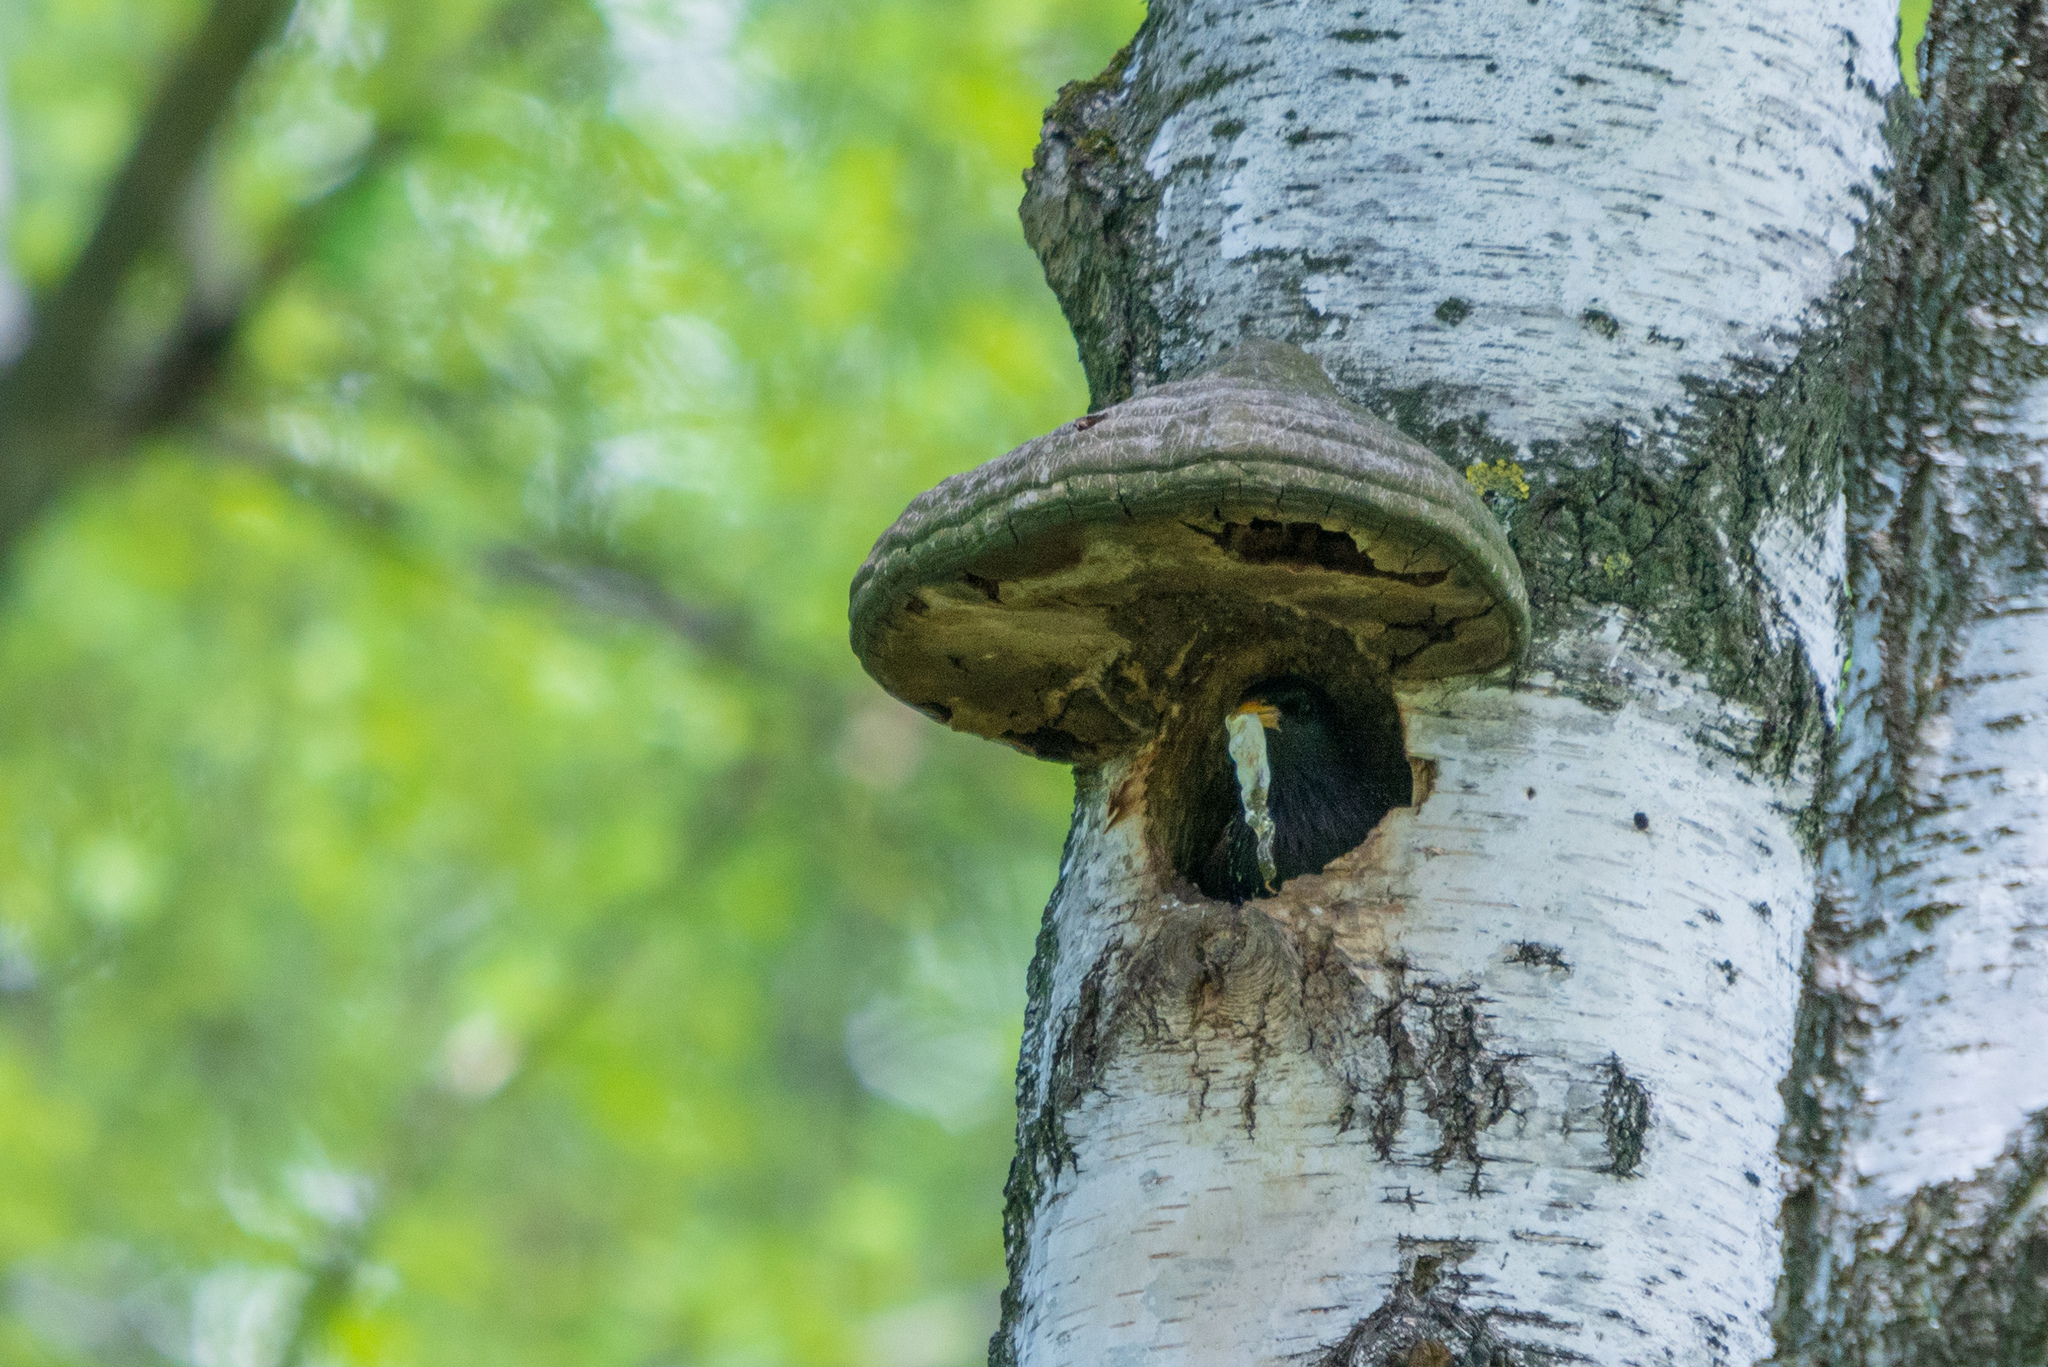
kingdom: Animalia
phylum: Chordata
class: Aves
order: Passeriformes
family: Sturnidae
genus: Sturnus
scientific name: Sturnus vulgaris
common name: Common starling
